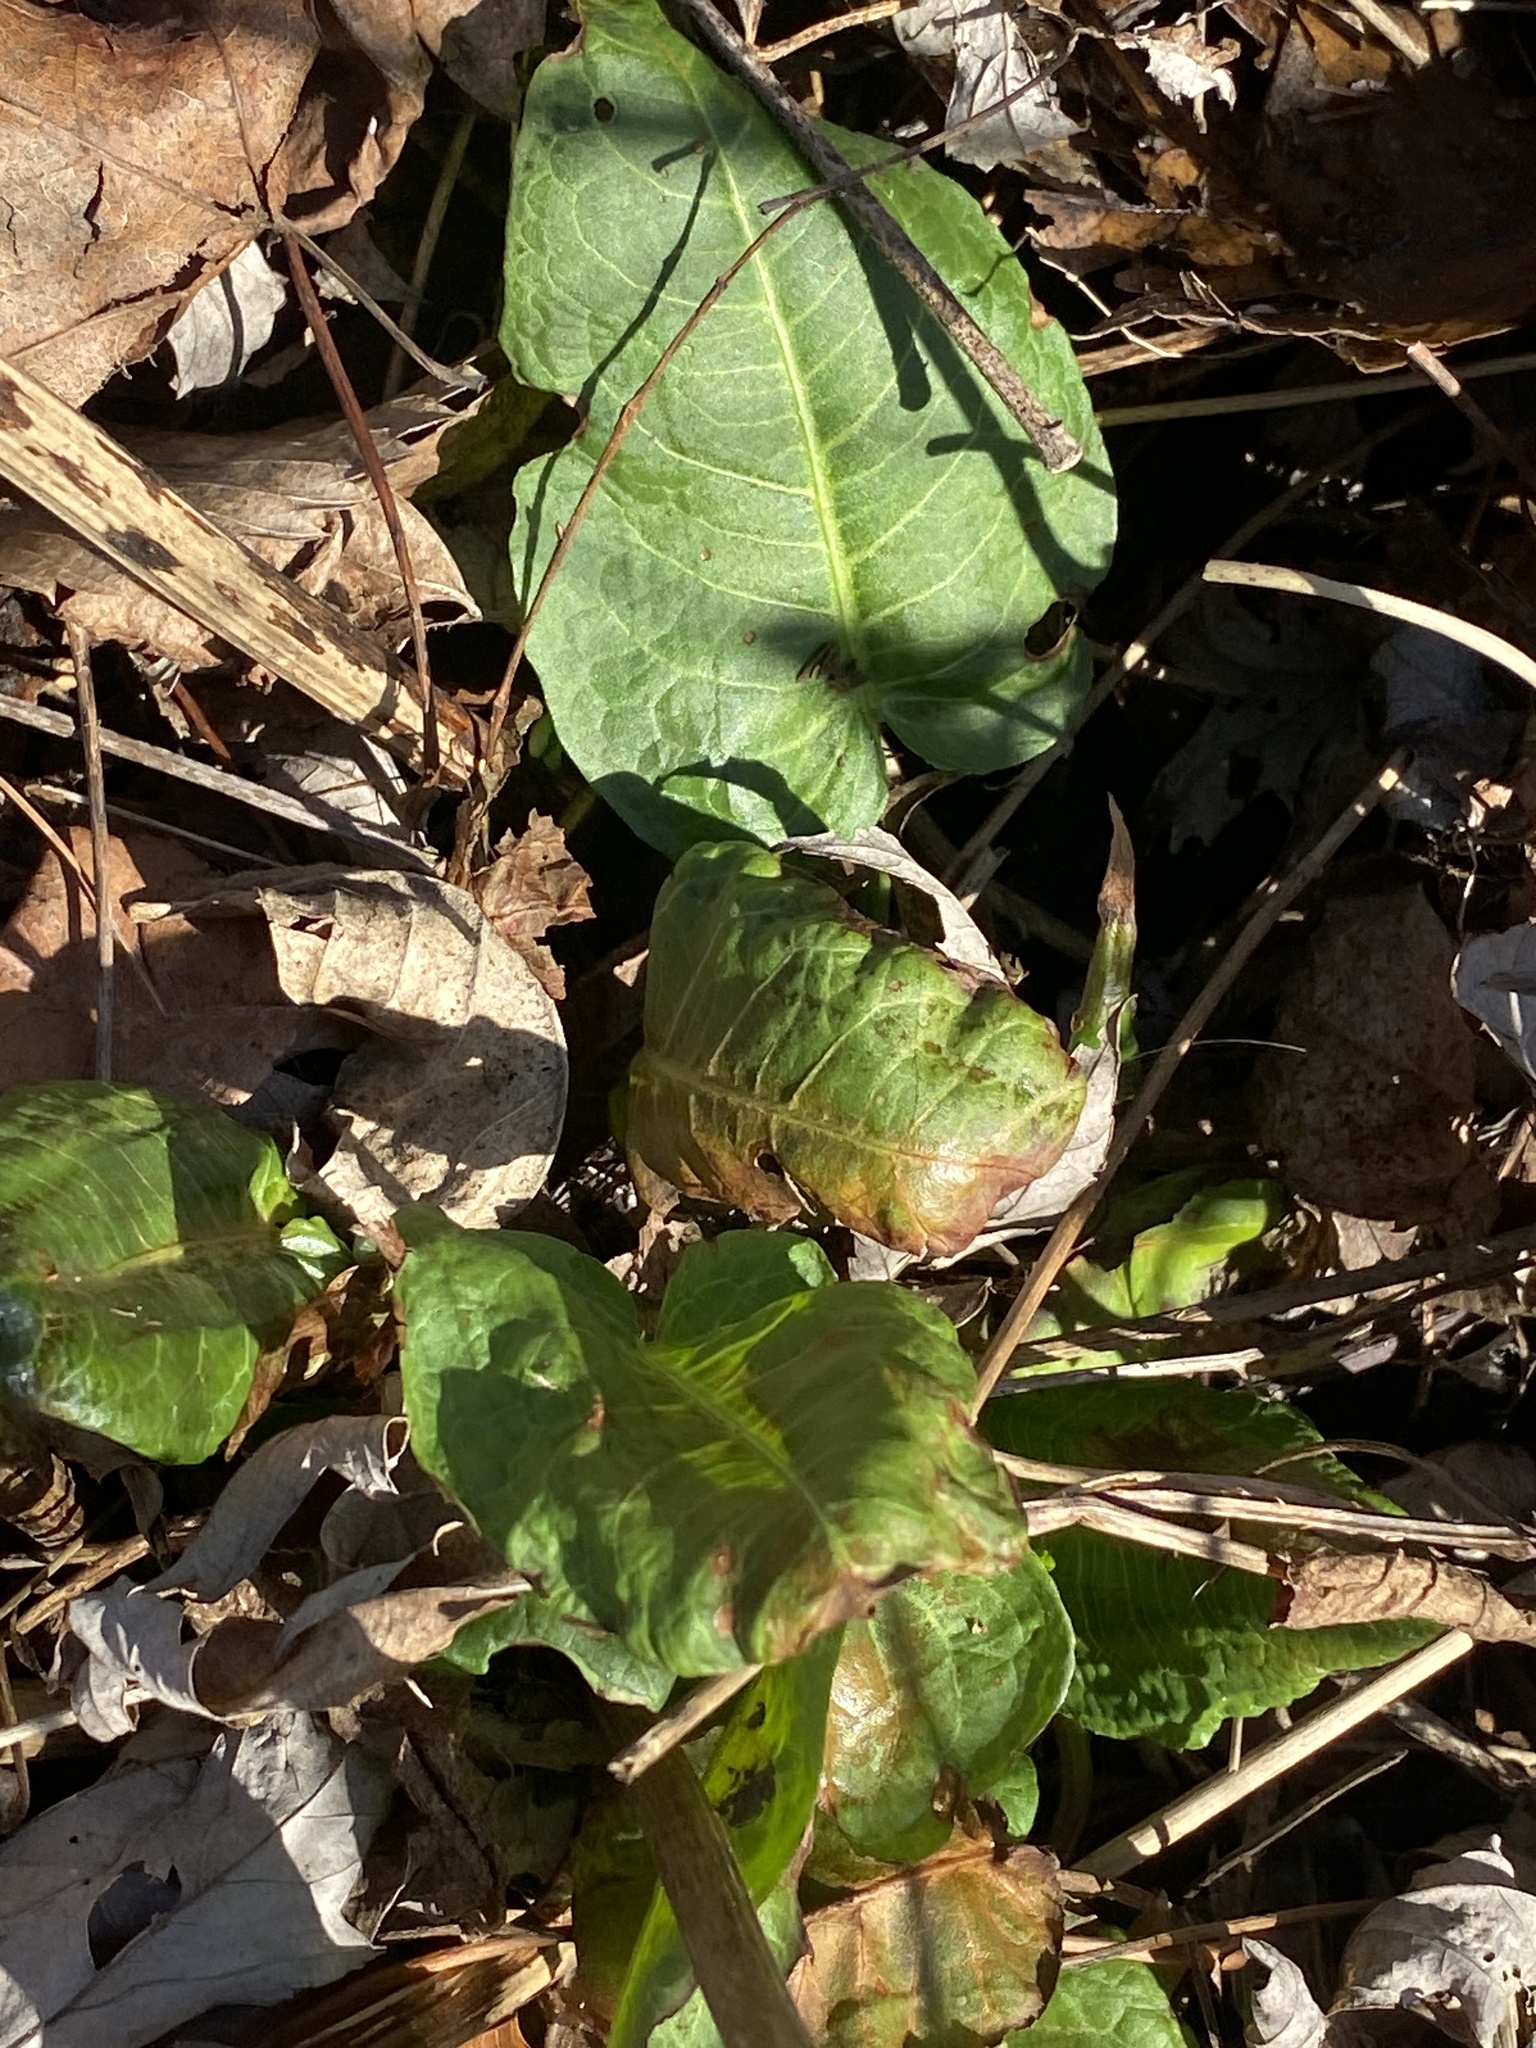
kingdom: Plantae
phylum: Tracheophyta
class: Magnoliopsida
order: Caryophyllales
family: Polygonaceae
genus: Rumex
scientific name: Rumex obtusifolius
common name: Bitter dock
